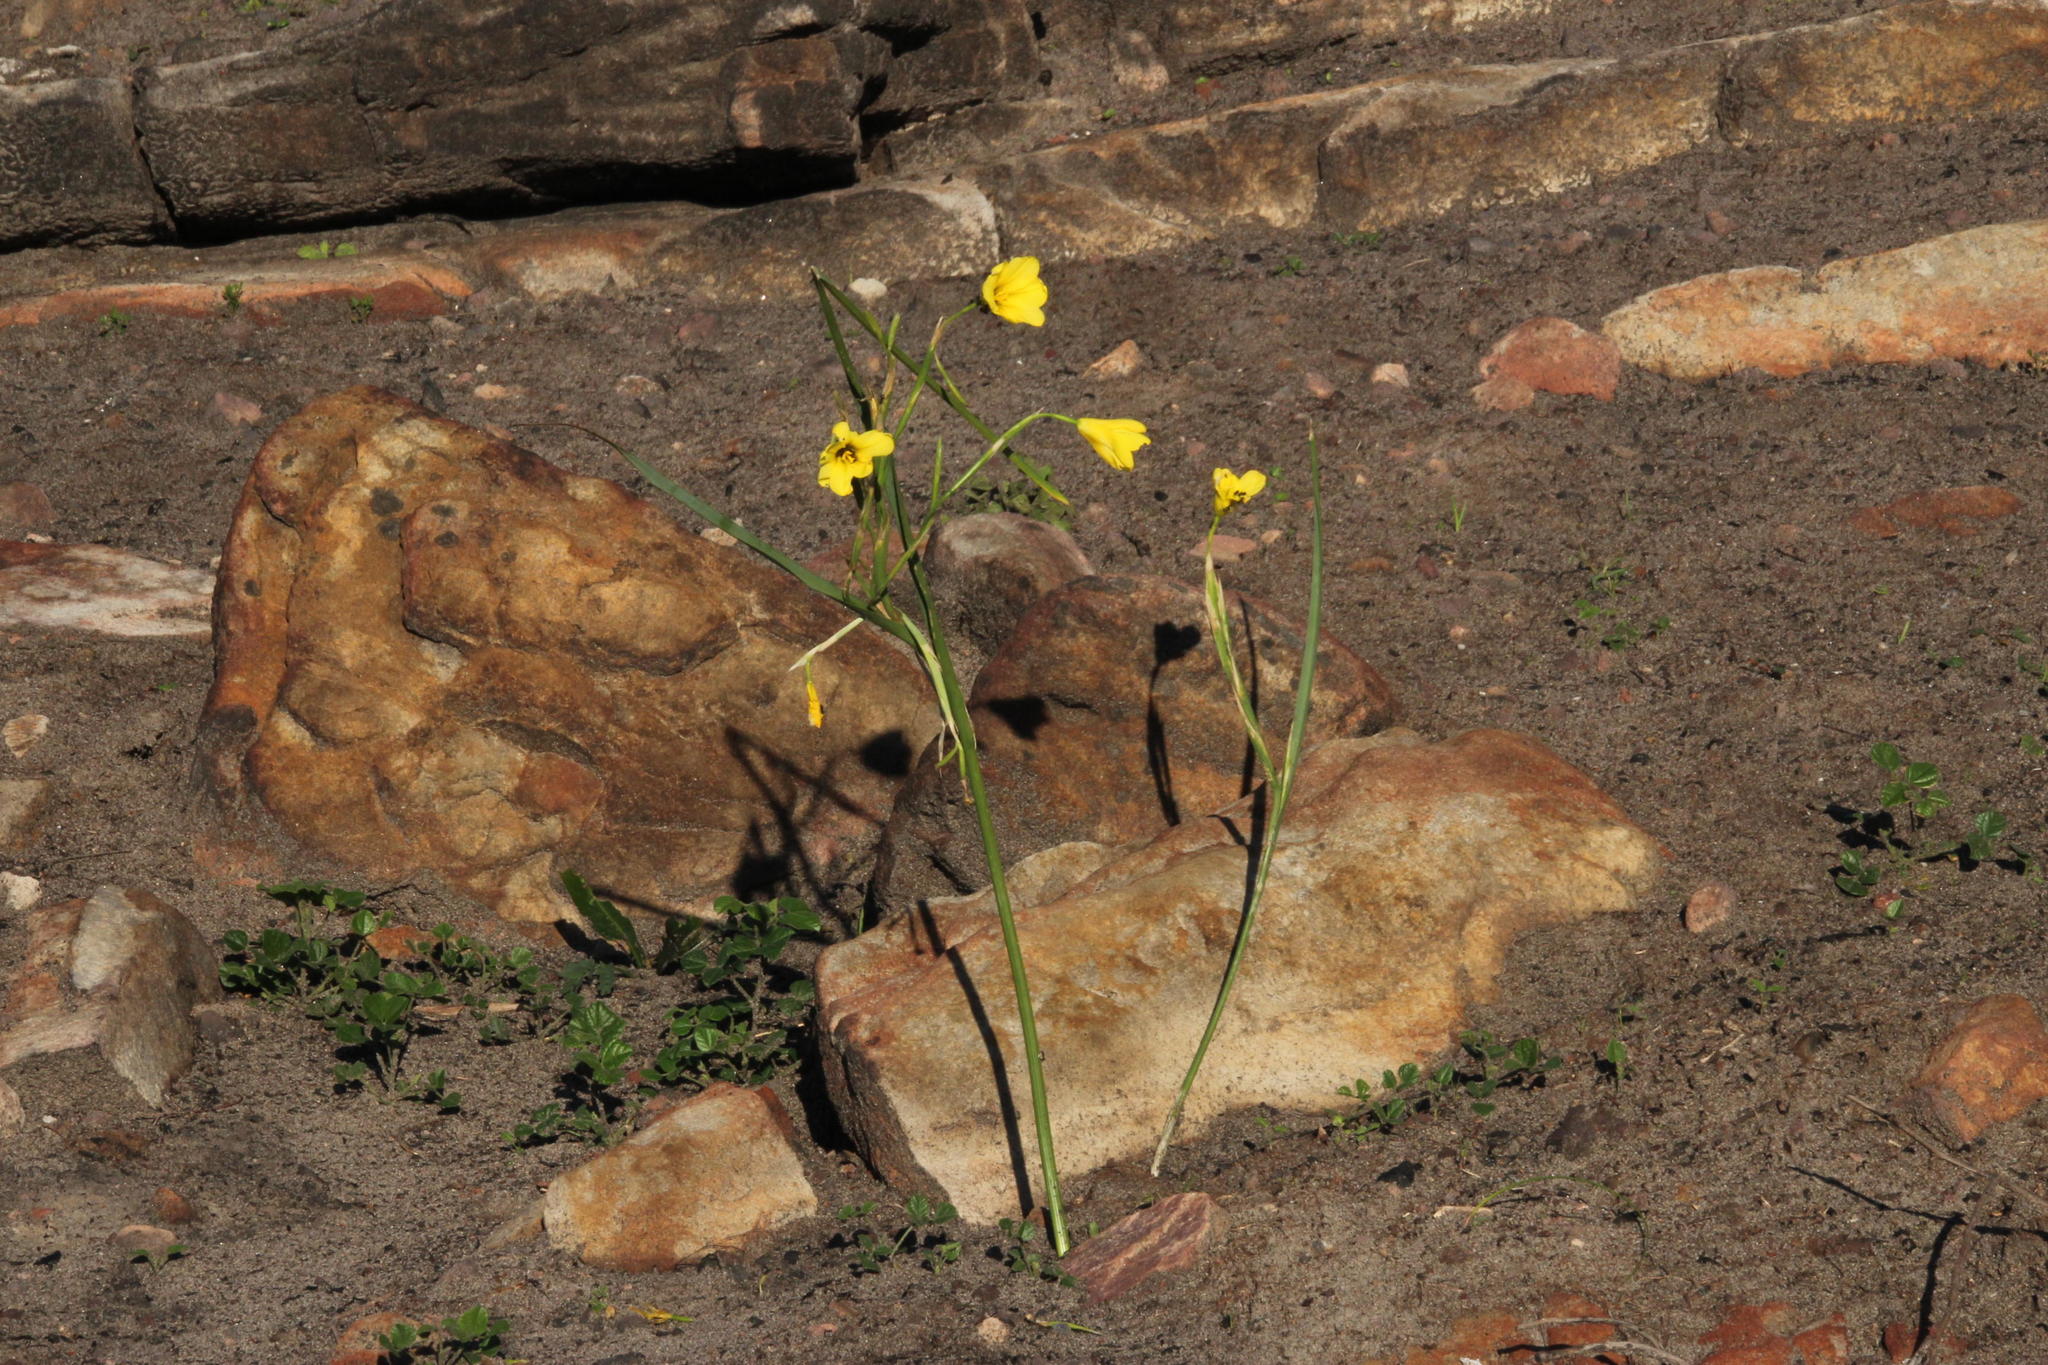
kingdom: Plantae
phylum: Tracheophyta
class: Liliopsida
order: Asparagales
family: Iridaceae
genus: Moraea
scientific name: Moraea ochroleuca
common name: Red tulp
